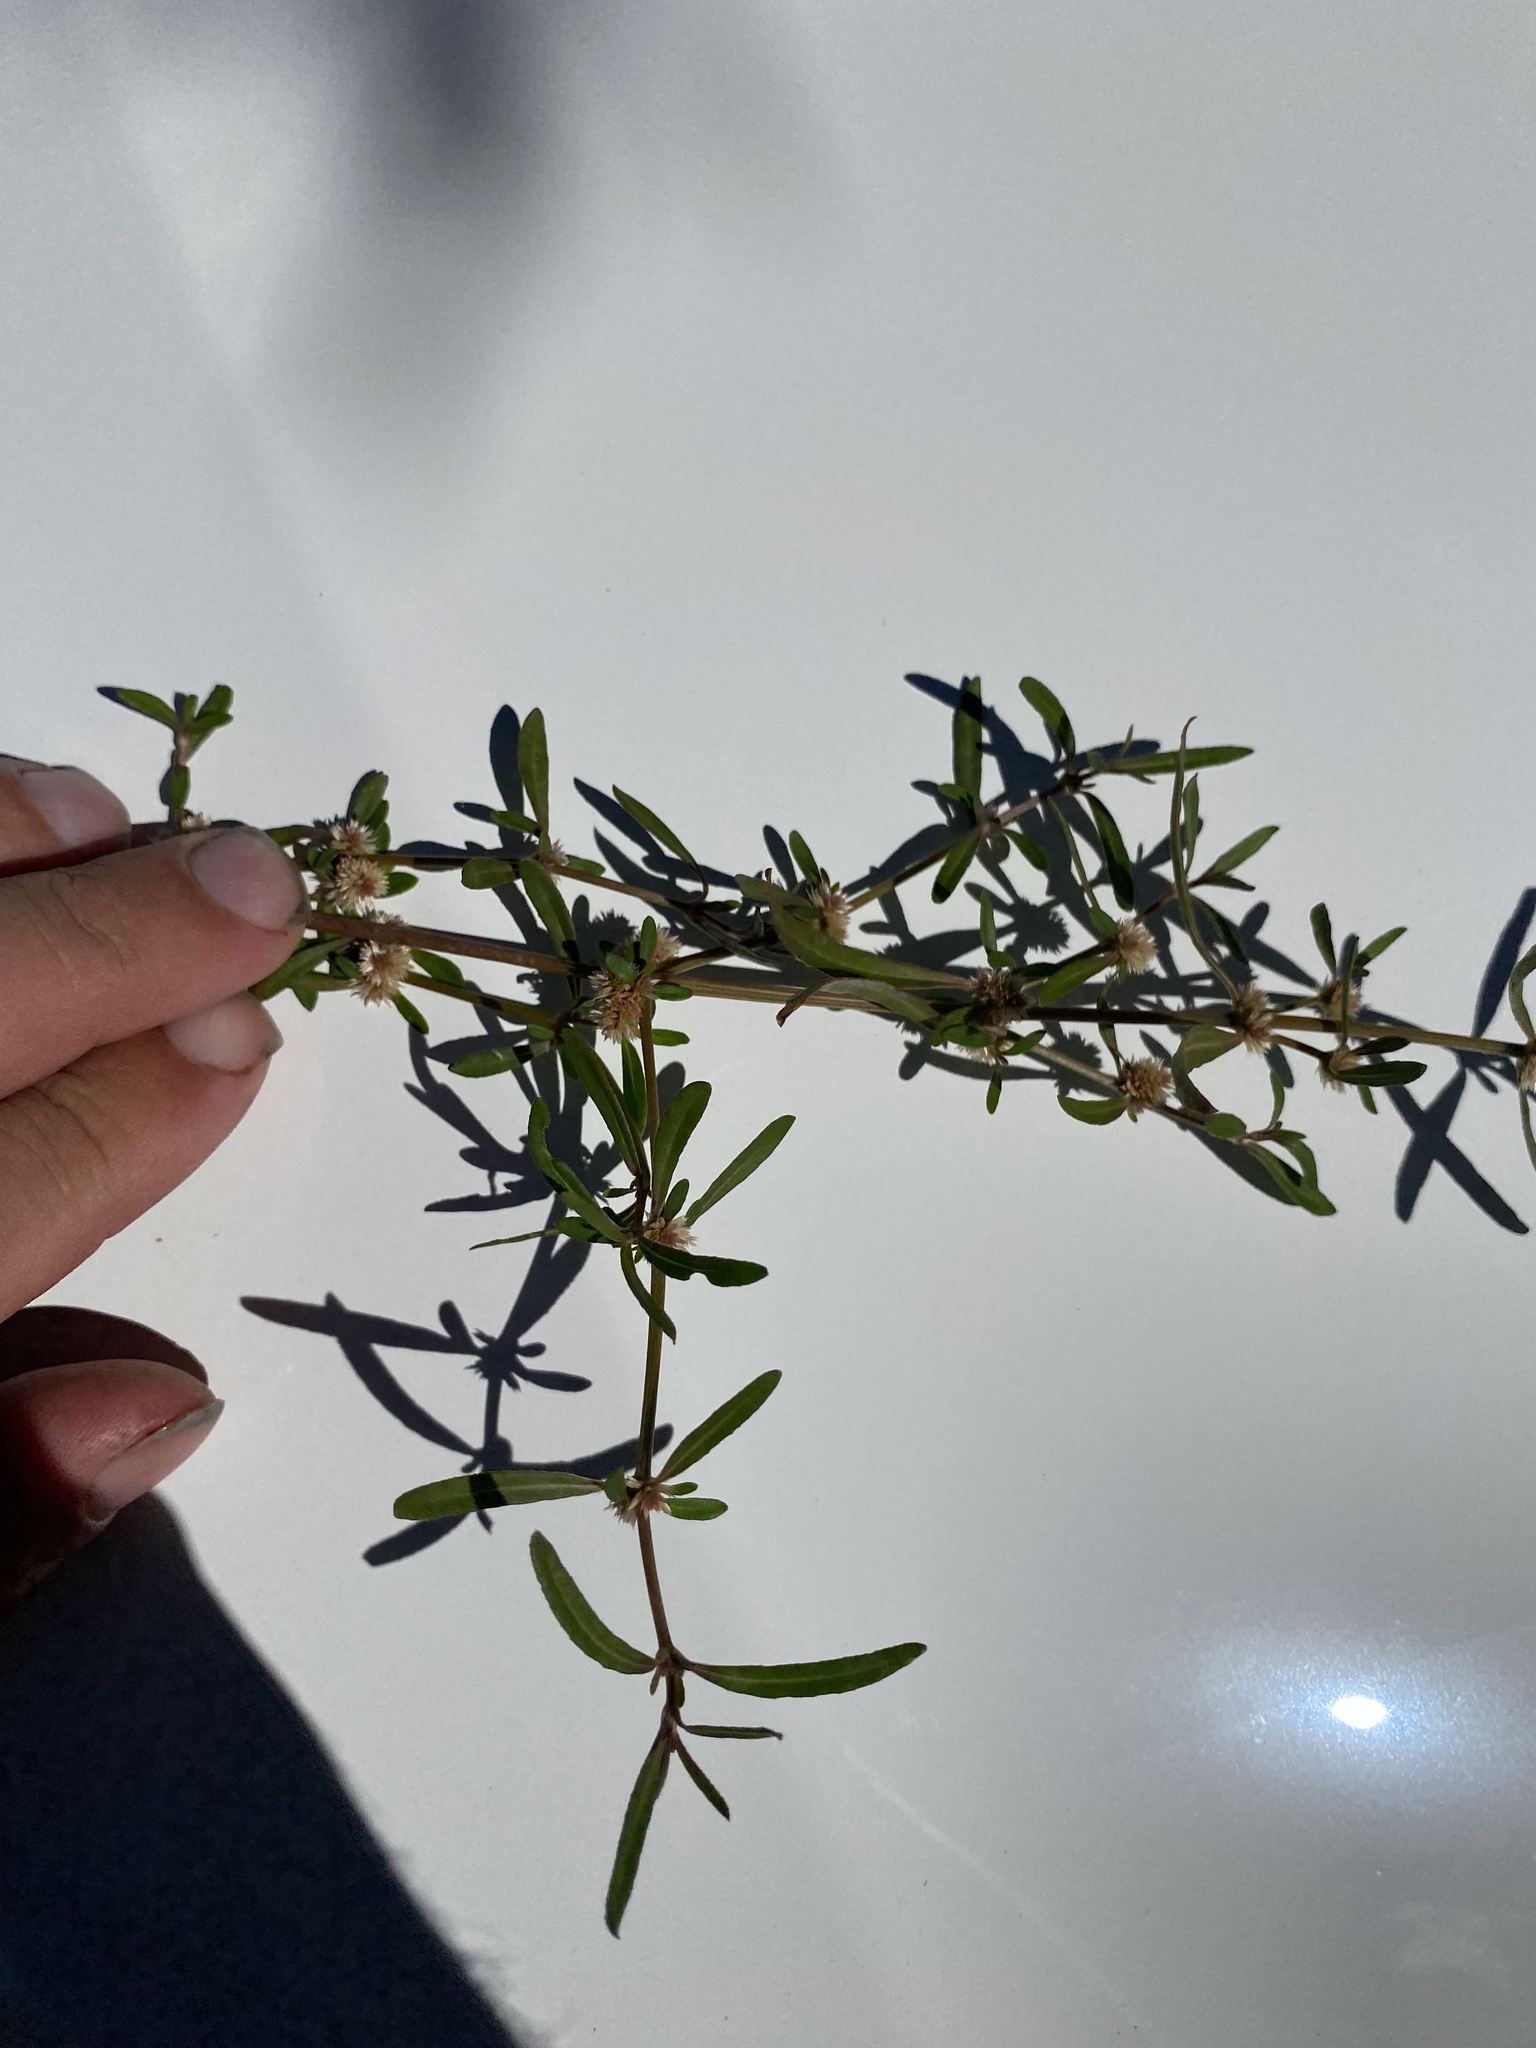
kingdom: Plantae
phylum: Tracheophyta
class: Magnoliopsida
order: Caryophyllales
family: Amaranthaceae
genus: Alternanthera
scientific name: Alternanthera nahui
